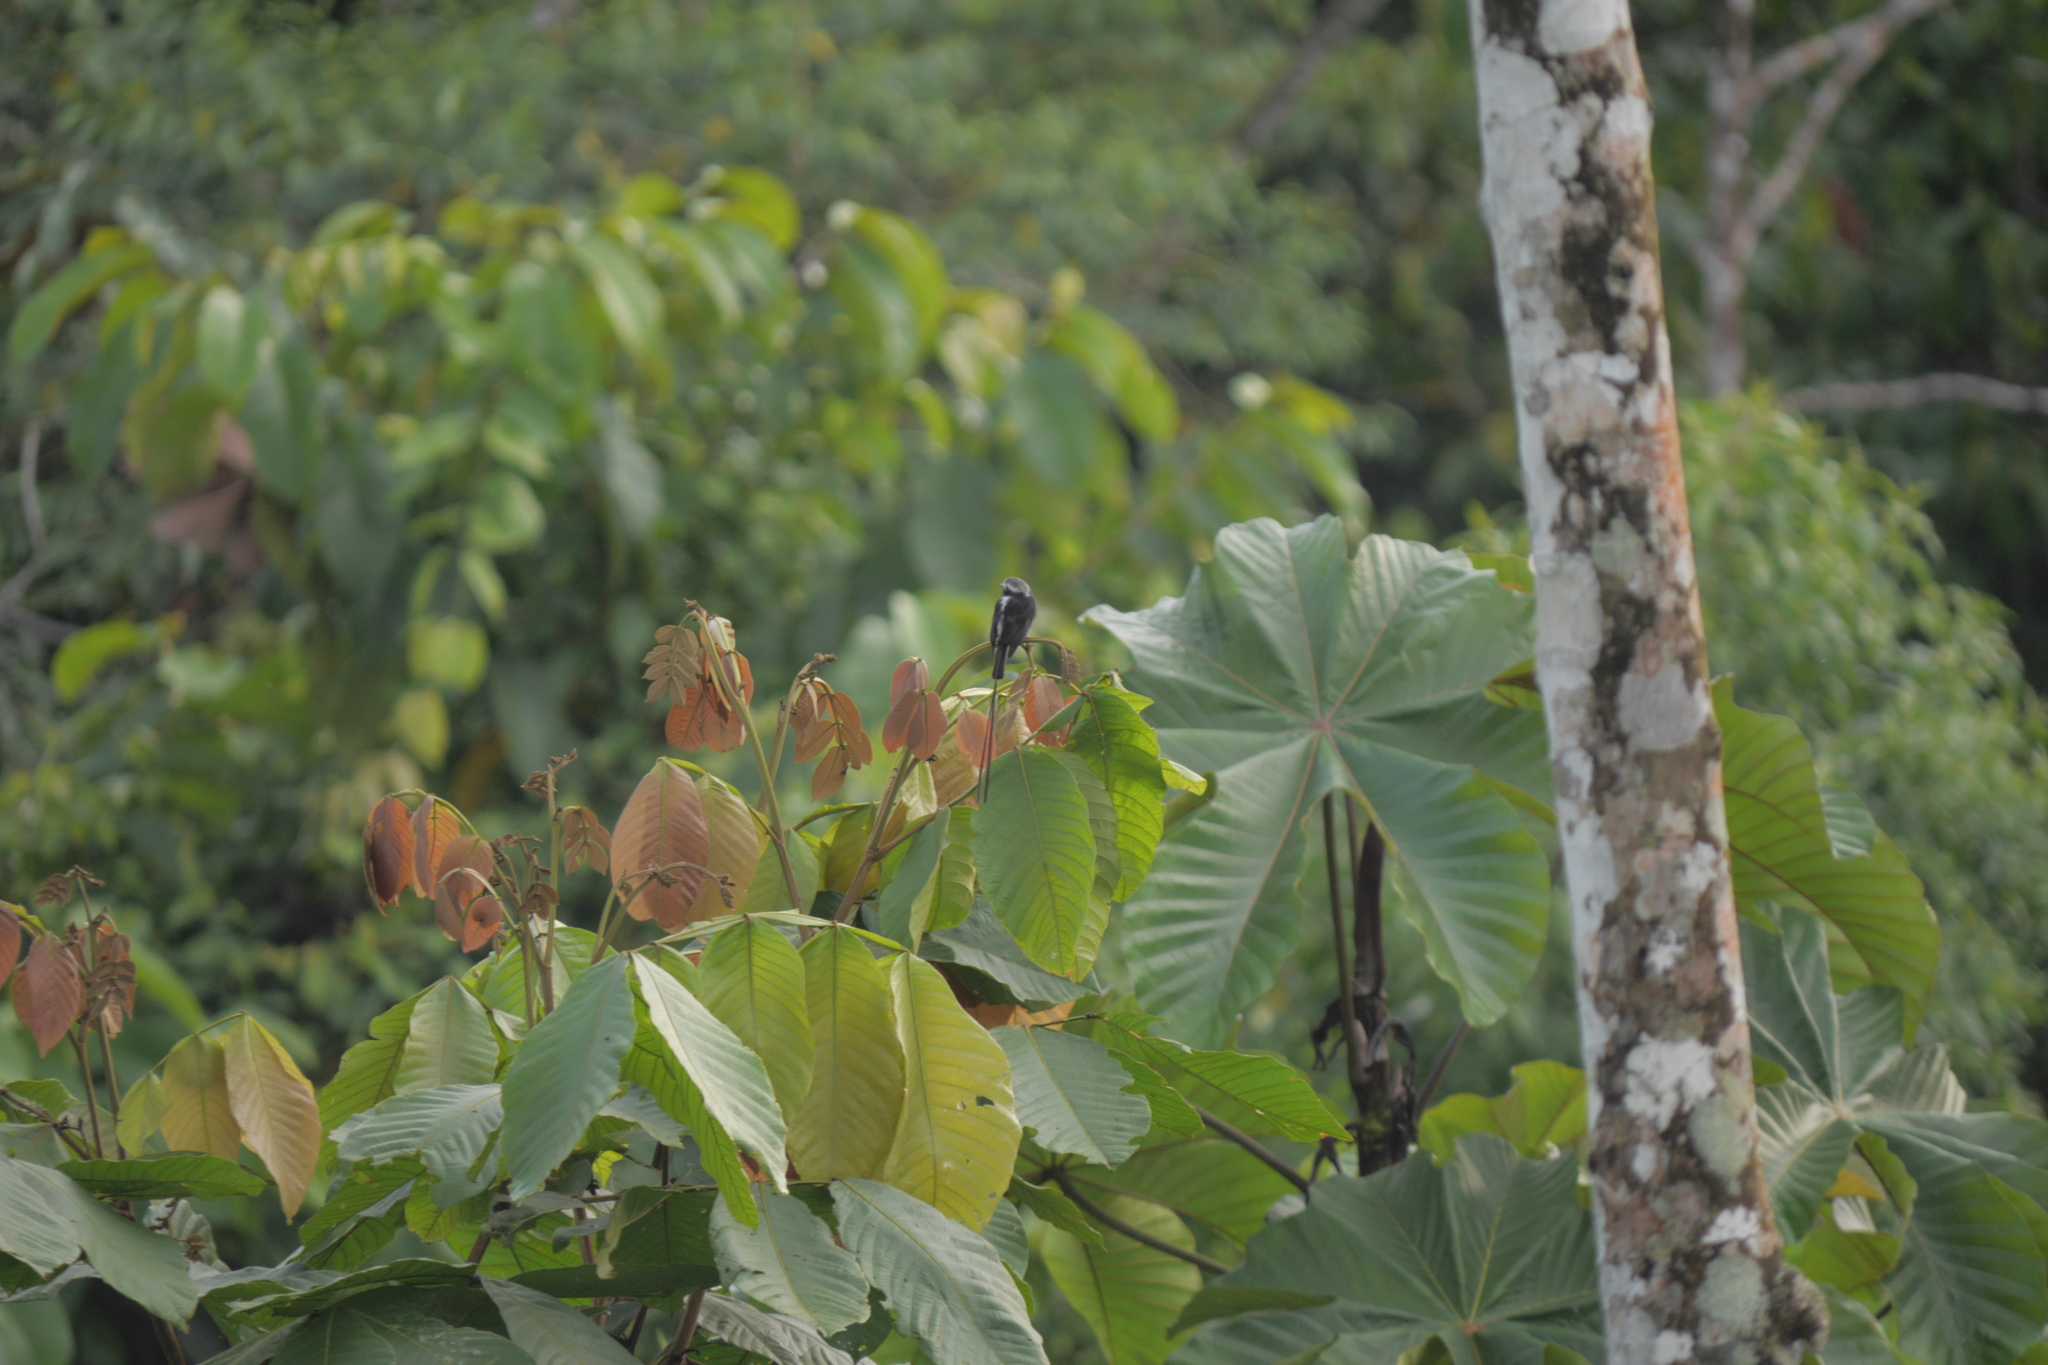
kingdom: Animalia
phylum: Chordata
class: Aves
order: Passeriformes
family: Tyrannidae
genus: Colonia
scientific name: Colonia colonus
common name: Long-tailed tyrant
